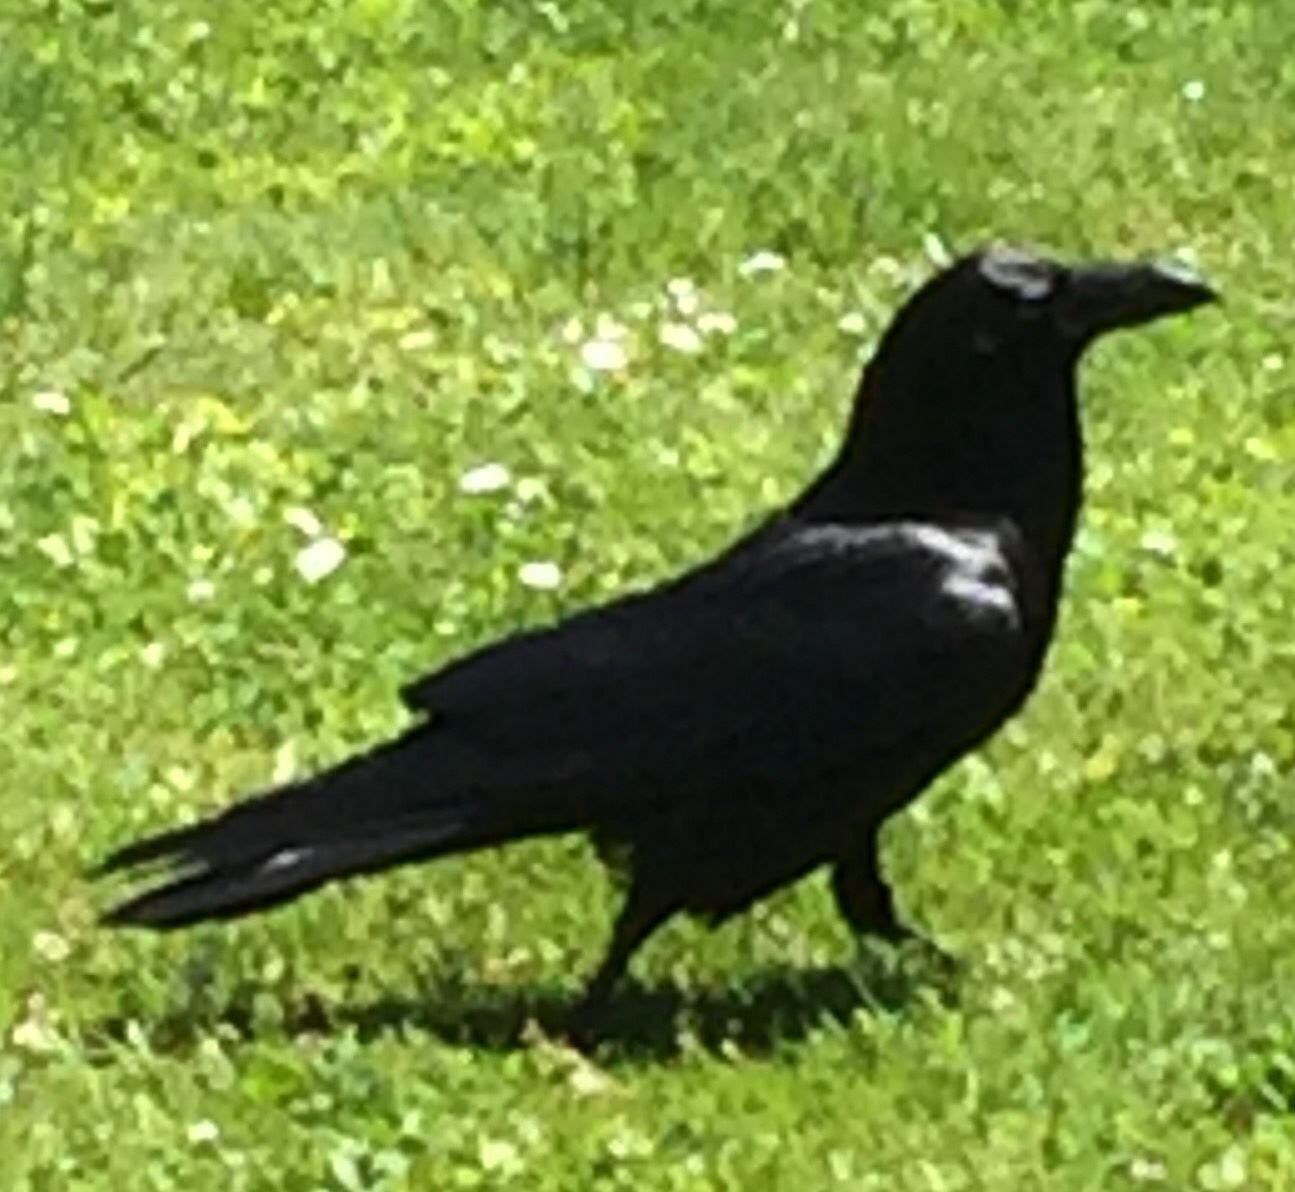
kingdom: Animalia
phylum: Chordata
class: Aves
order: Passeriformes
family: Corvidae
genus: Corvus
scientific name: Corvus corax
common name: Common raven
